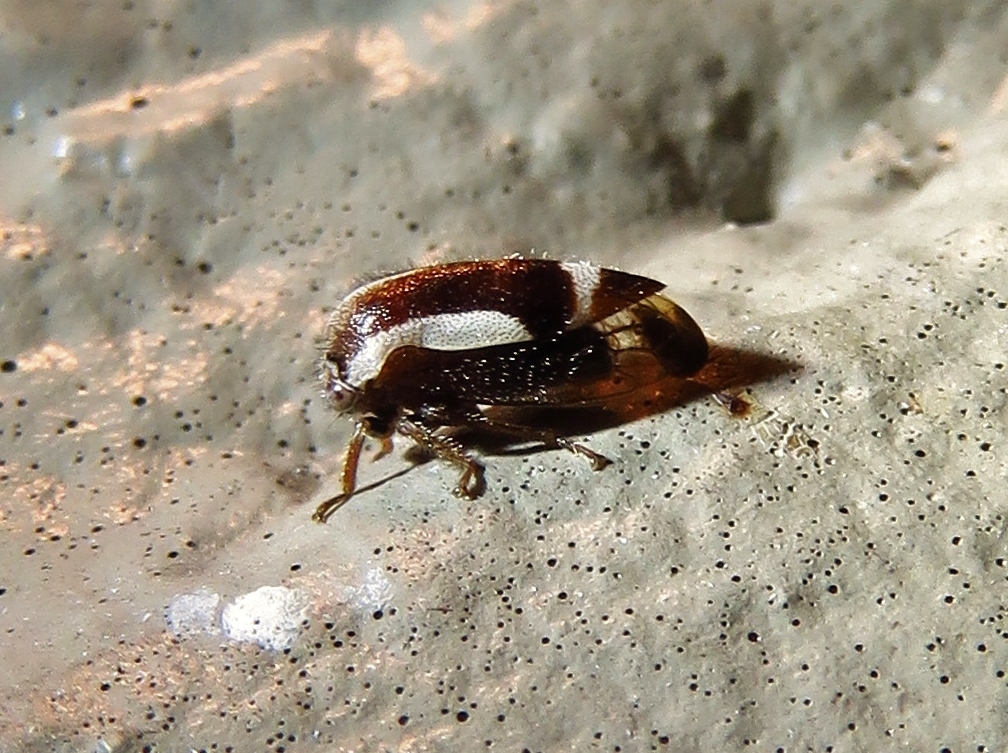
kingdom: Animalia
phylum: Arthropoda
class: Insecta
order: Hemiptera
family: Membracidae
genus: Ophiderma
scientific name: Ophiderma flavicephala
